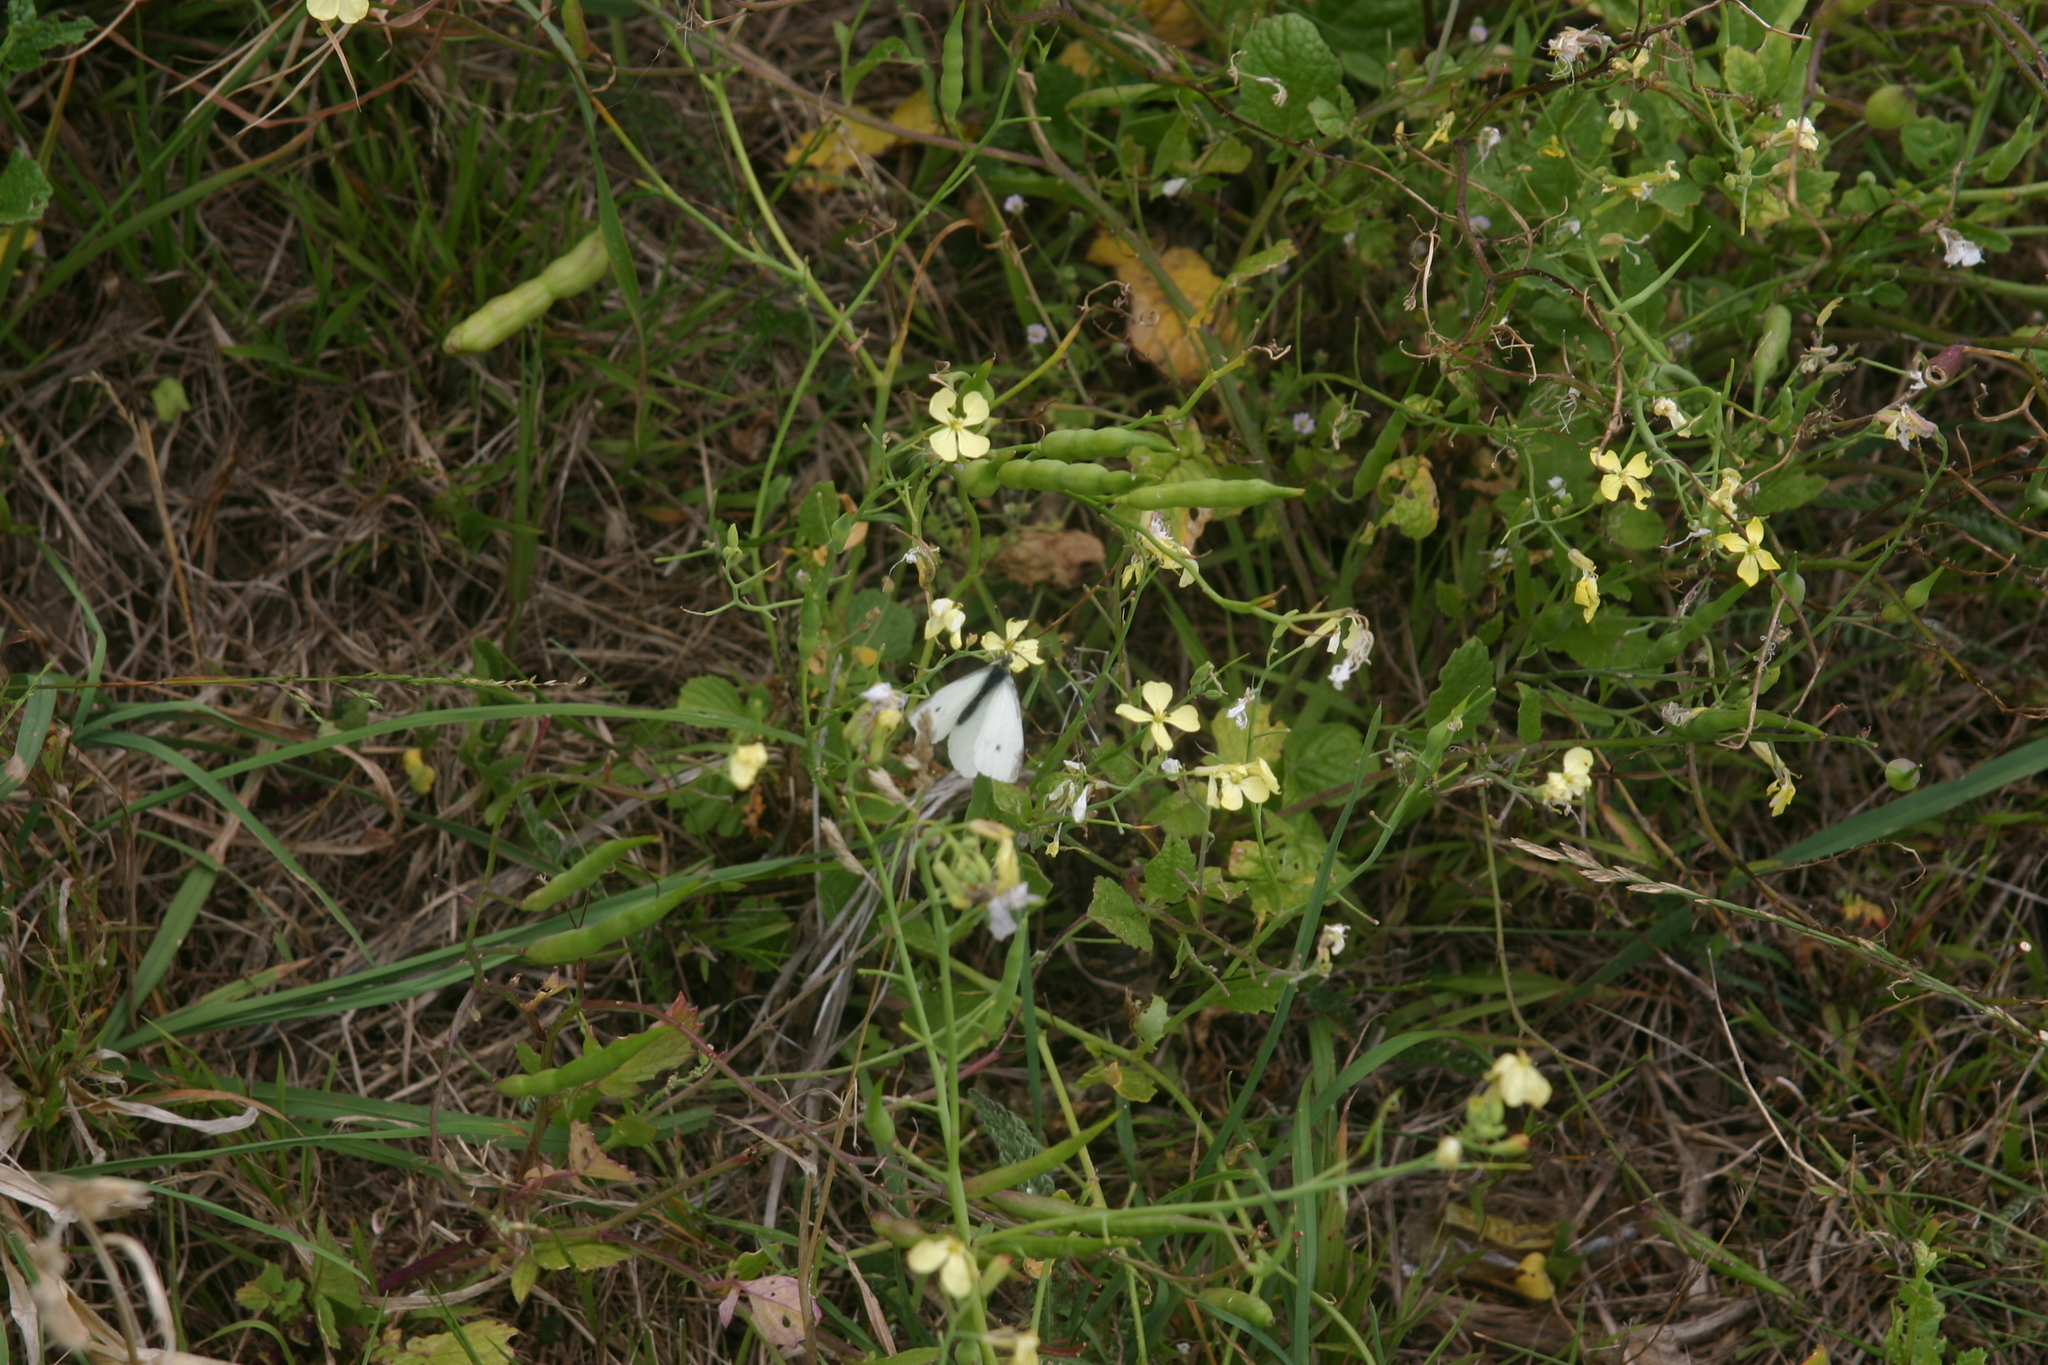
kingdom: Animalia
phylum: Arthropoda
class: Insecta
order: Lepidoptera
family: Pieridae
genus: Pieris
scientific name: Pieris rapae
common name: Small white
